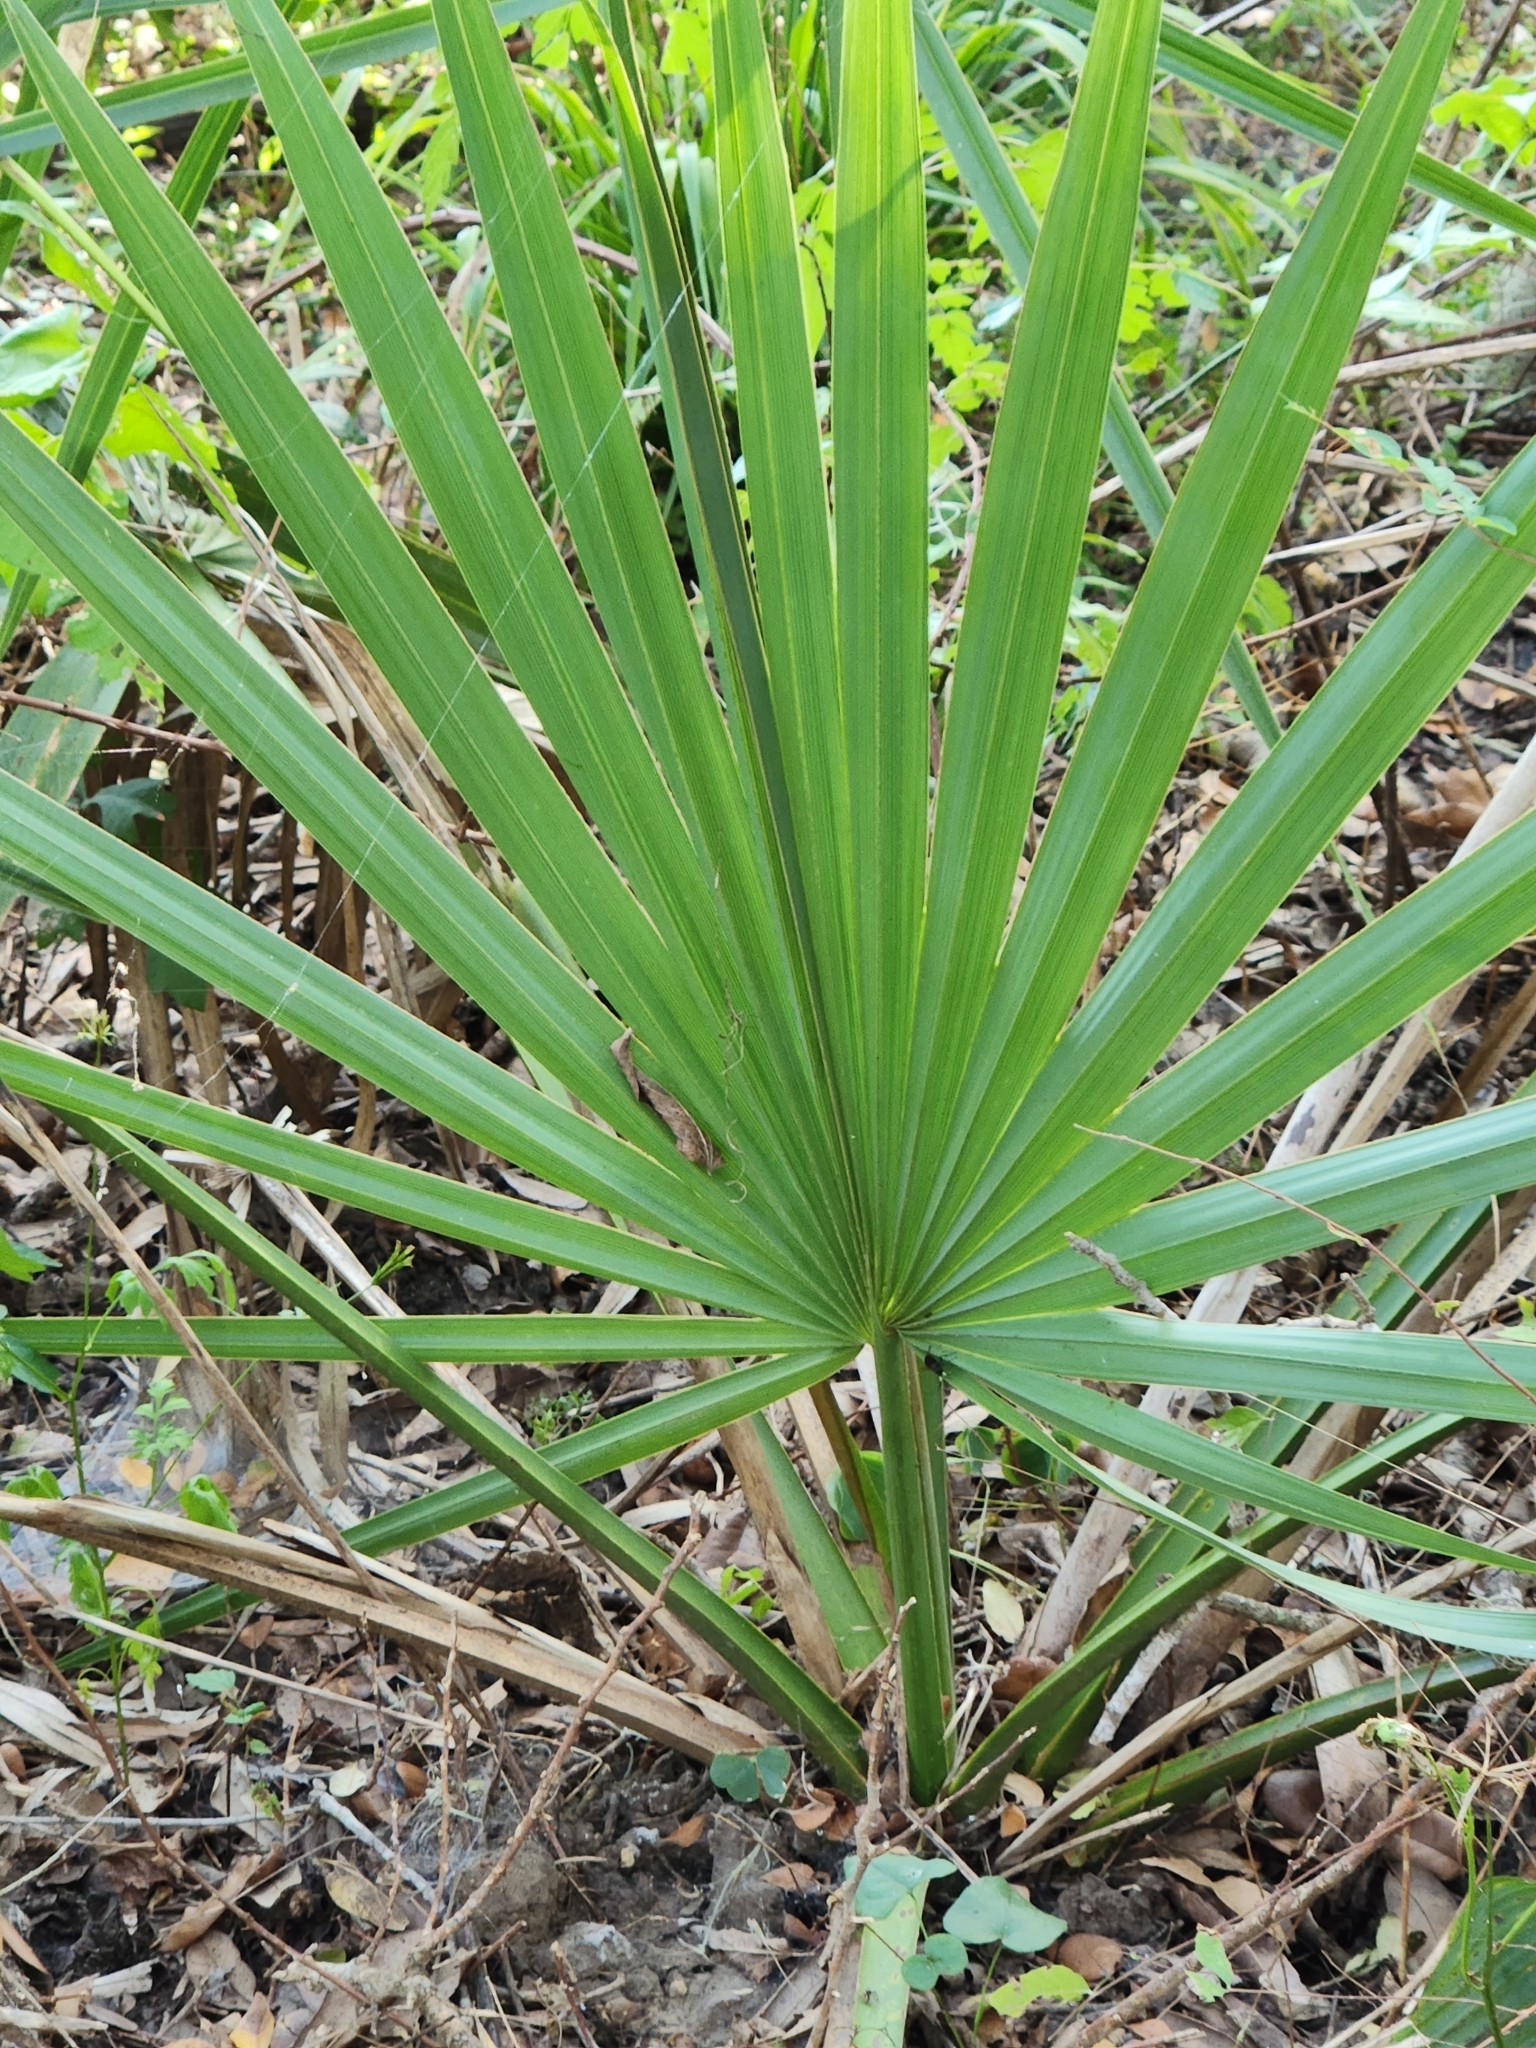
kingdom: Plantae
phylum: Tracheophyta
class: Liliopsida
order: Arecales
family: Arecaceae
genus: Sabal
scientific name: Sabal minor
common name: Dwarf palmetto
